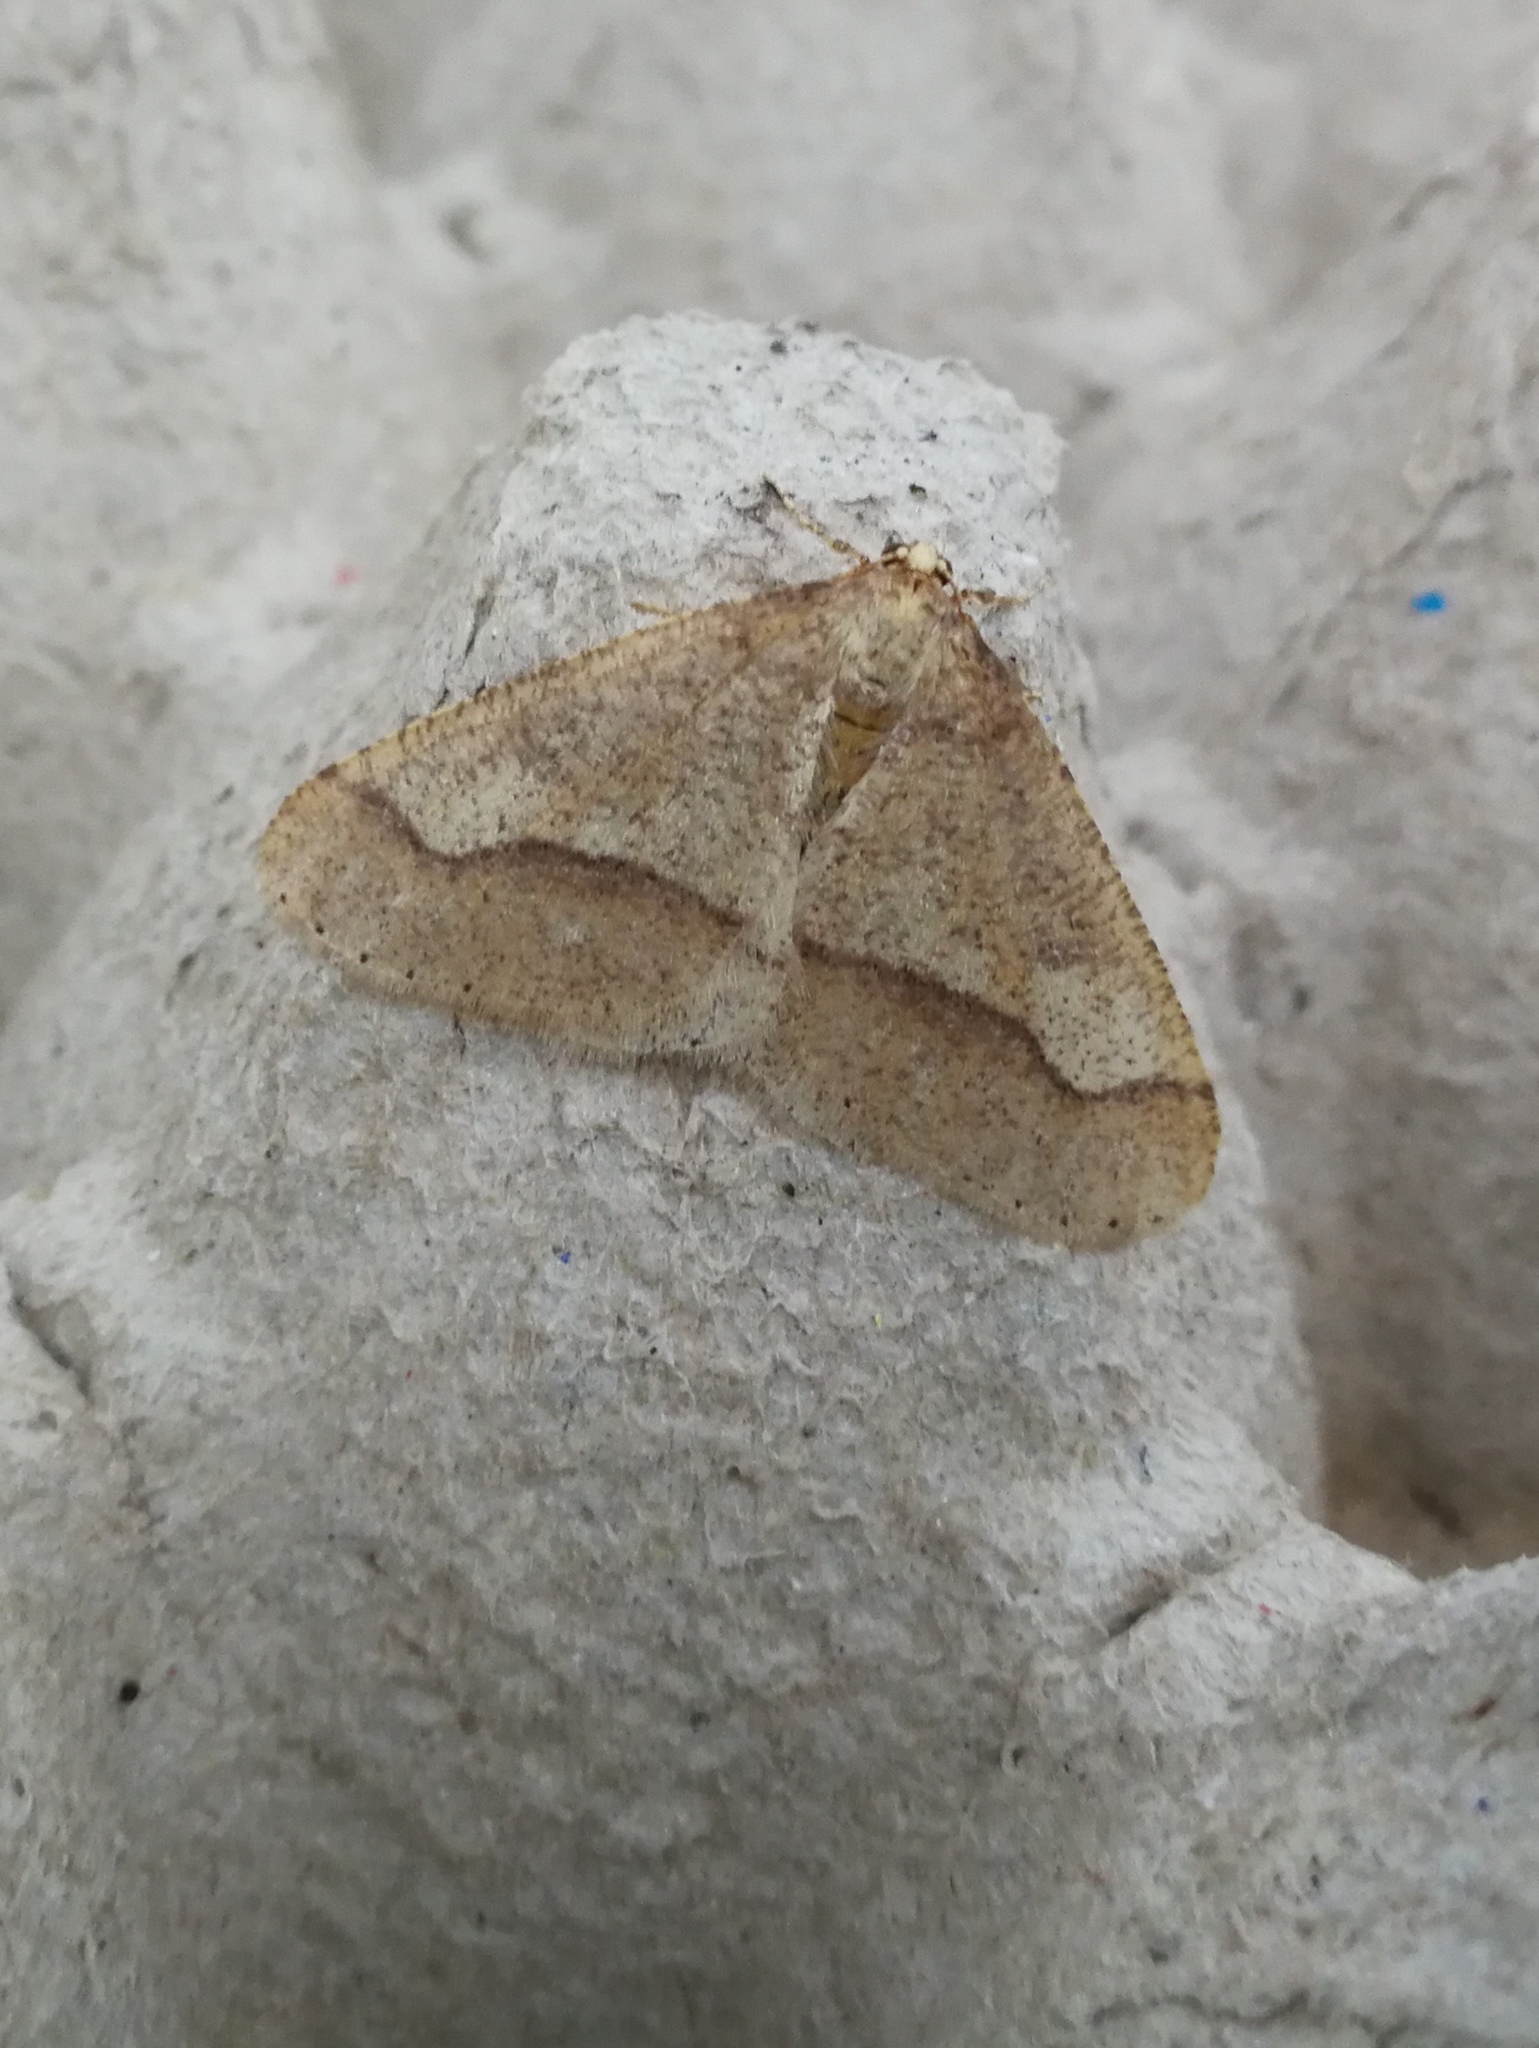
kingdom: Animalia
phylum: Arthropoda
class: Insecta
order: Lepidoptera
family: Geometridae
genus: Agriopis
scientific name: Agriopis marginaria
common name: Dotted border
